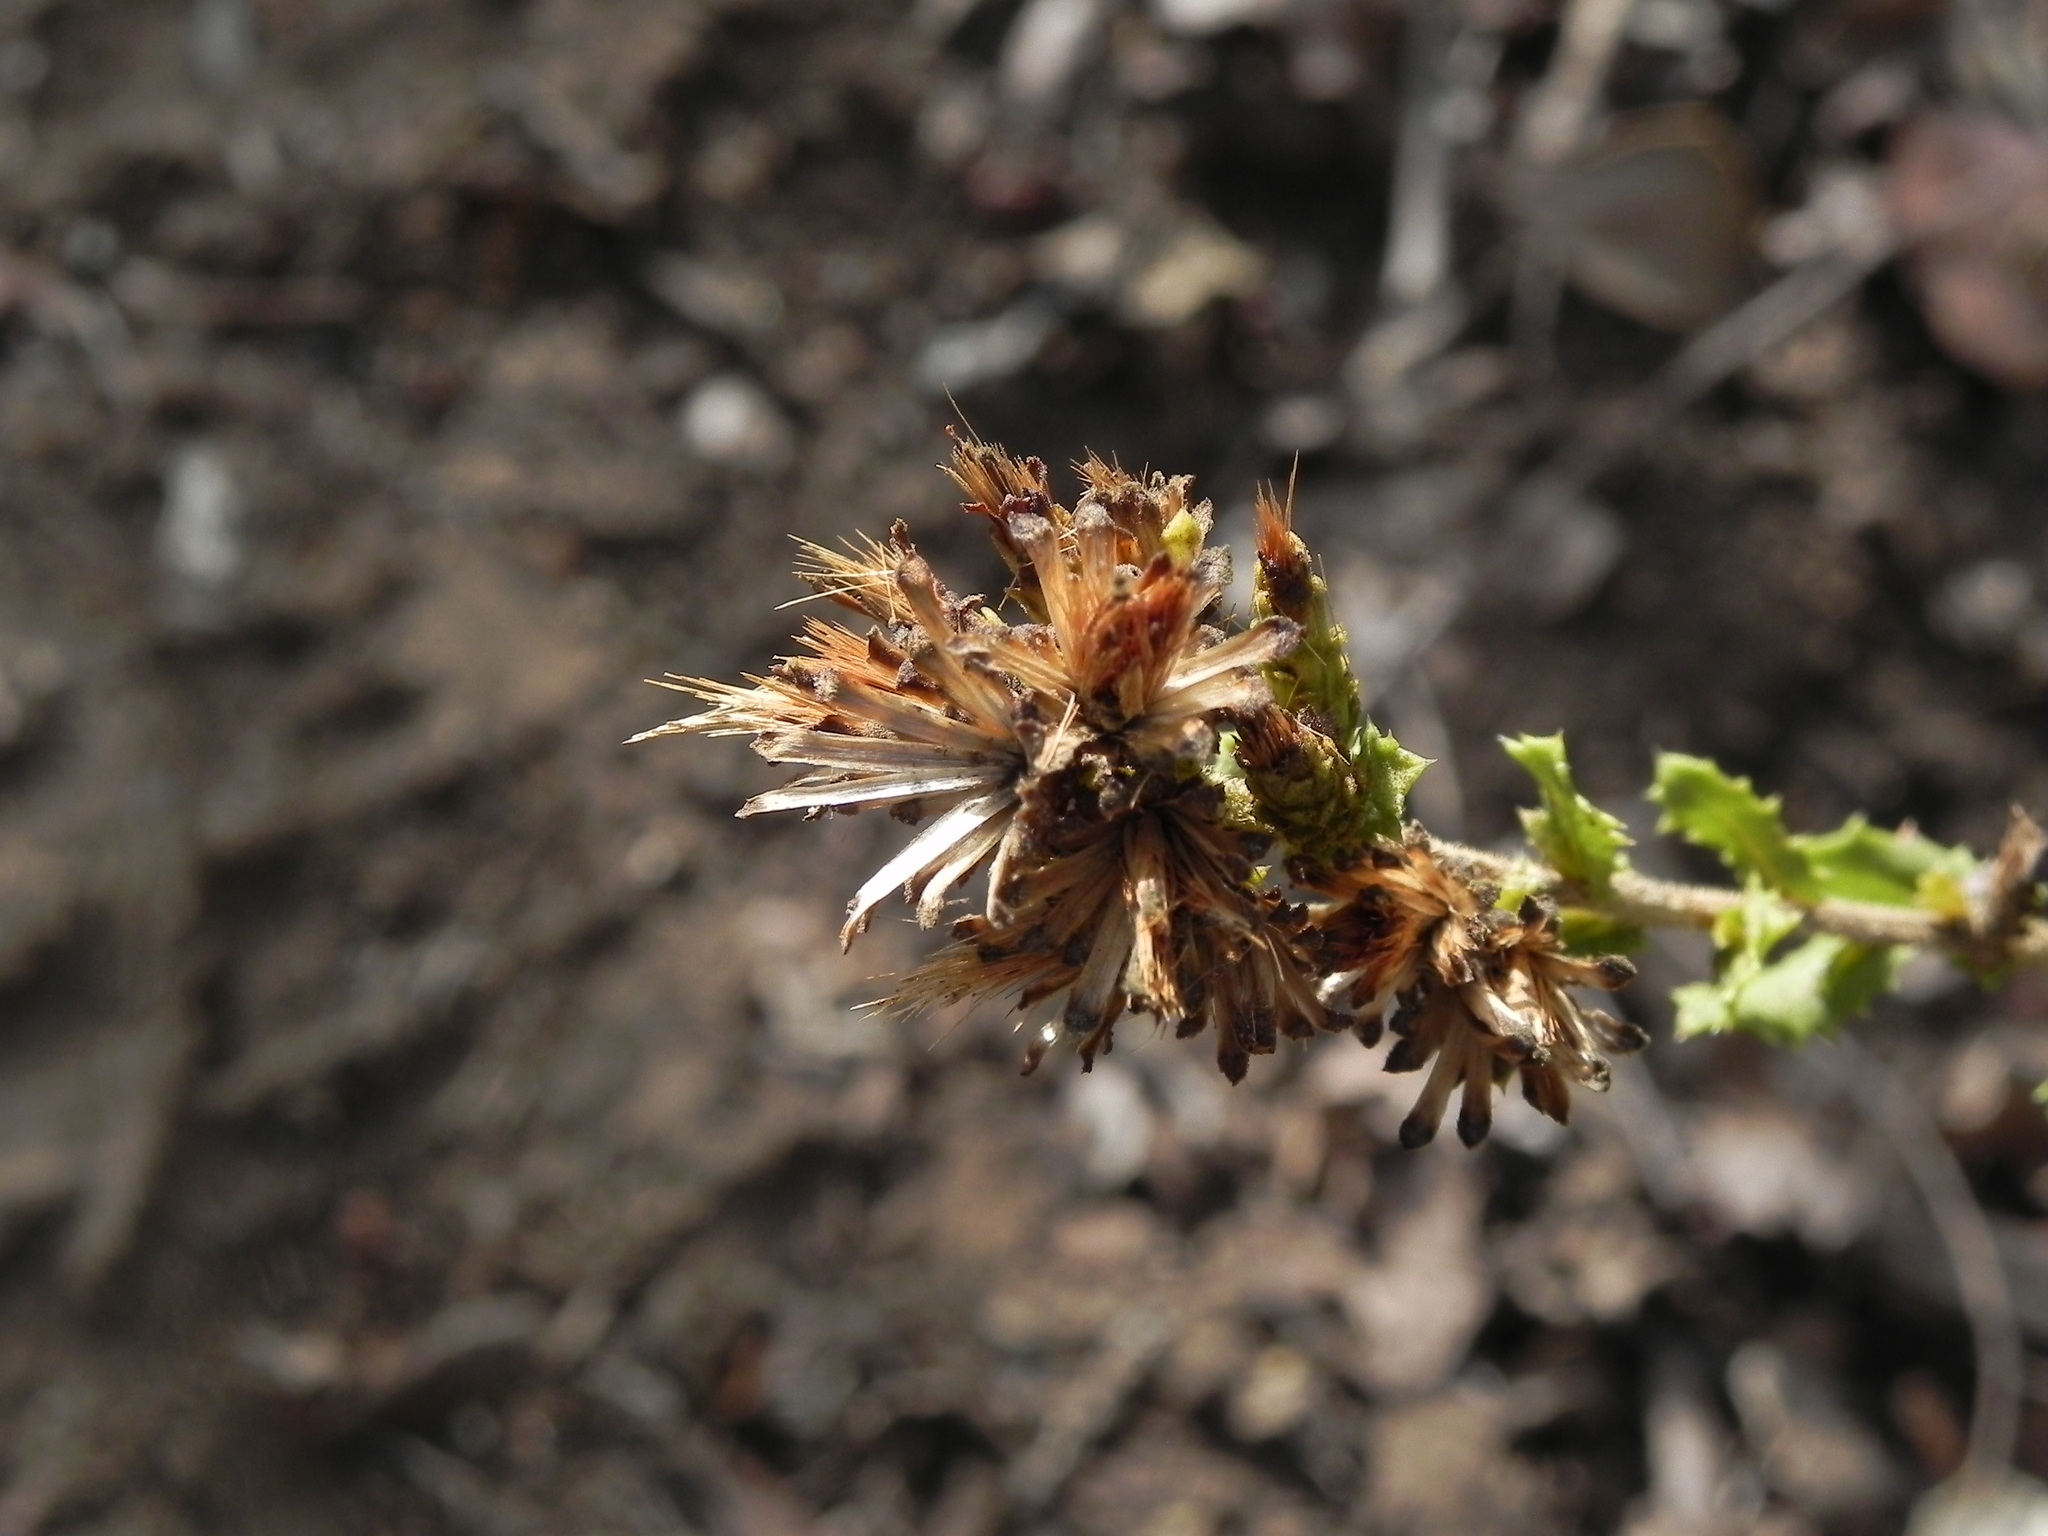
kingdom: Plantae
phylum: Tracheophyta
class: Magnoliopsida
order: Asterales
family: Asteraceae
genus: Hazardia
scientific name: Hazardia squarrosa
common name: Saw-tooth goldenbush
